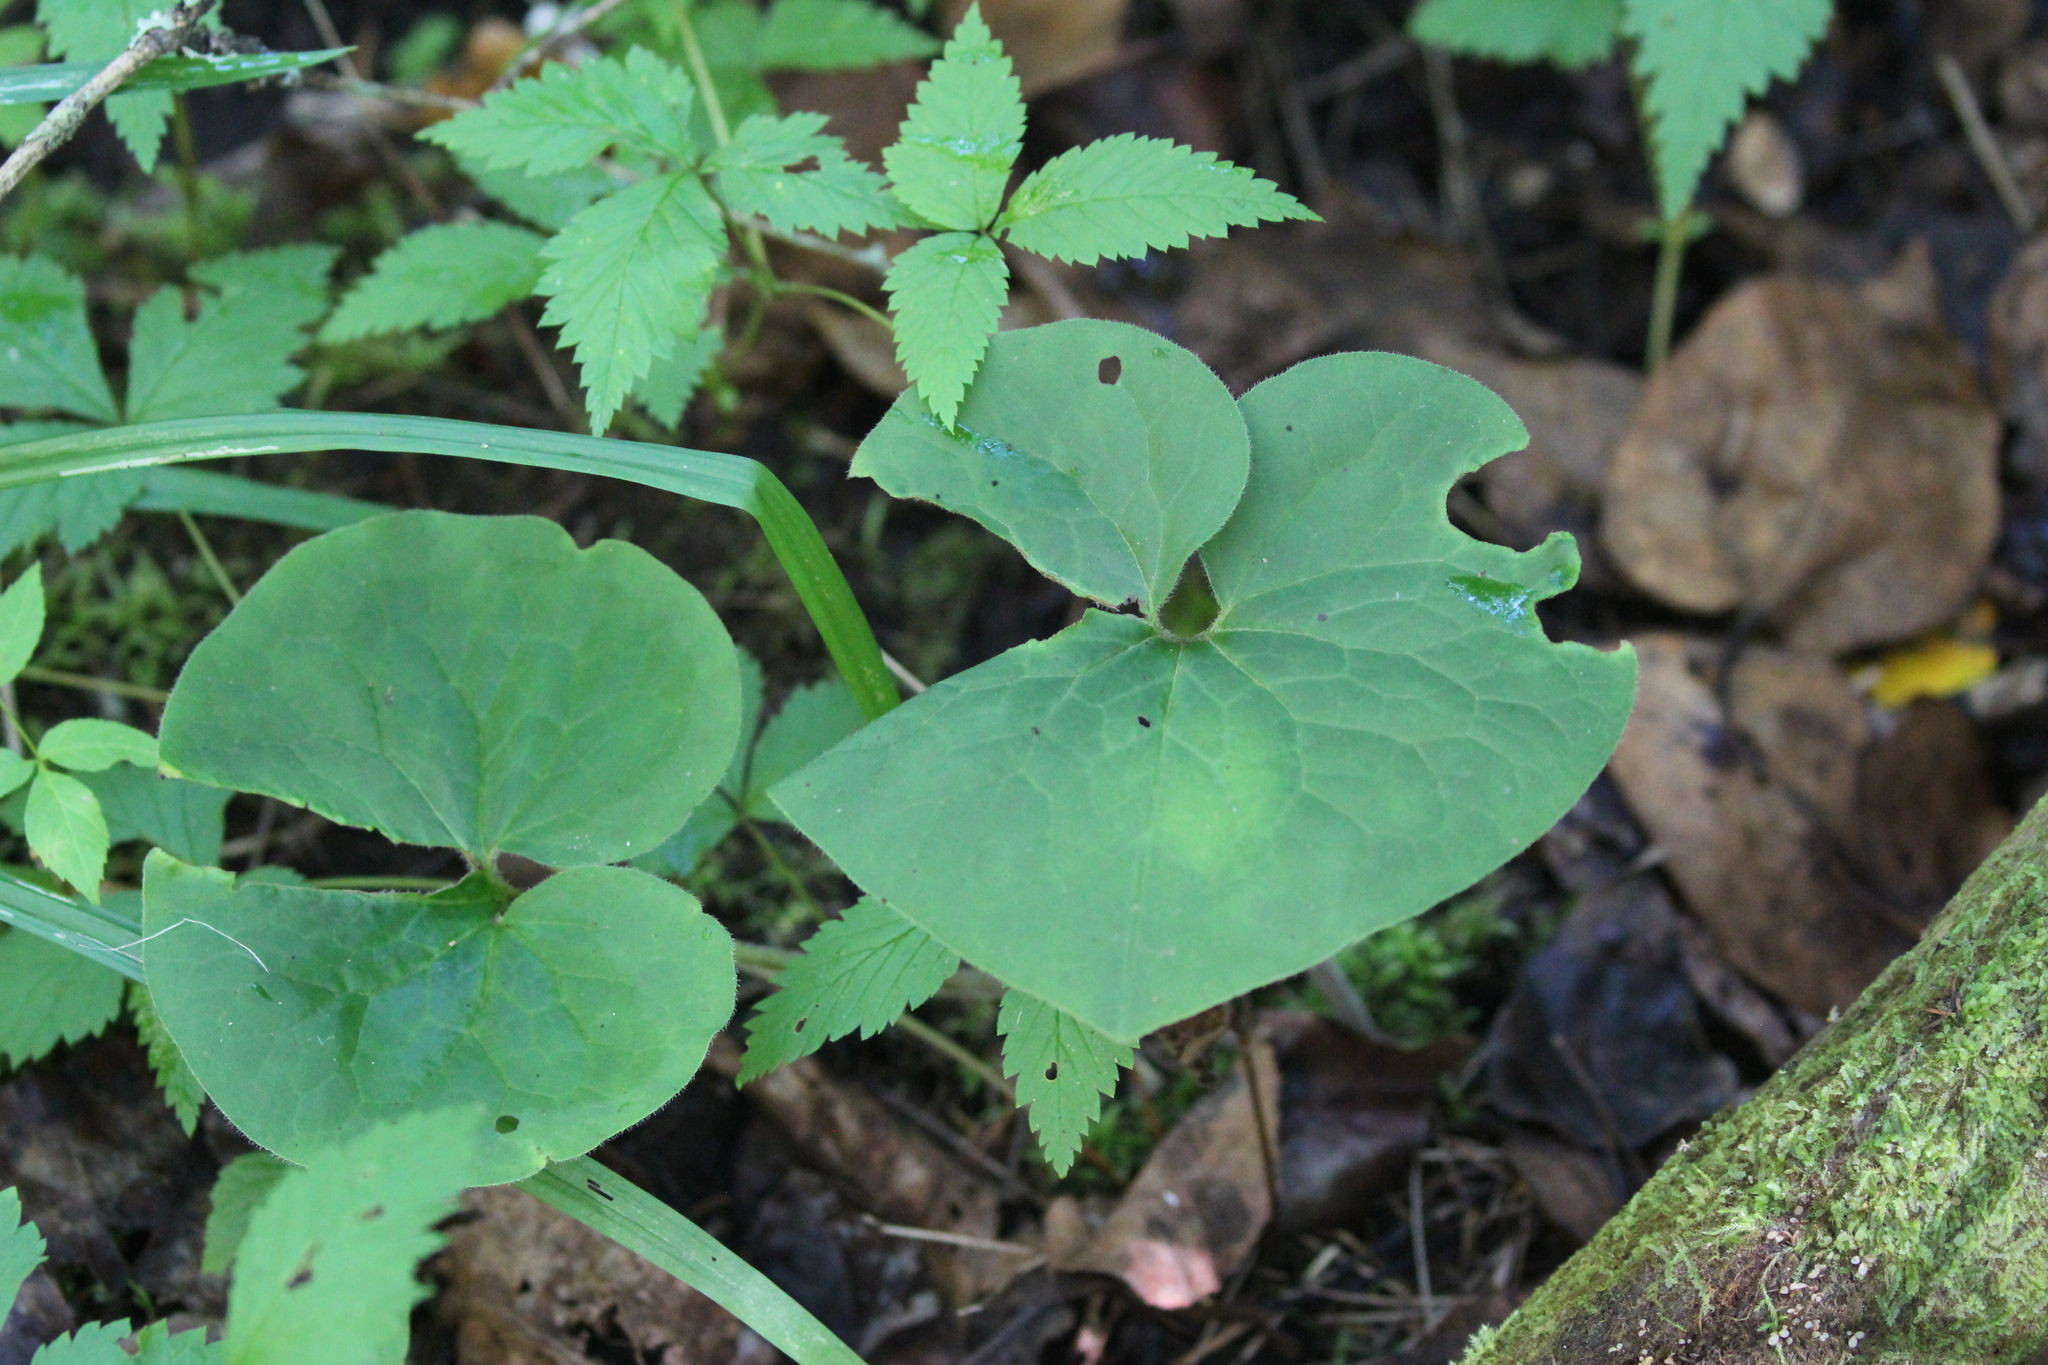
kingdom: Plantae
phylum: Tracheophyta
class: Magnoliopsida
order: Piperales
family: Aristolochiaceae
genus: Asarum
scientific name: Asarum canadense
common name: Wild ginger
